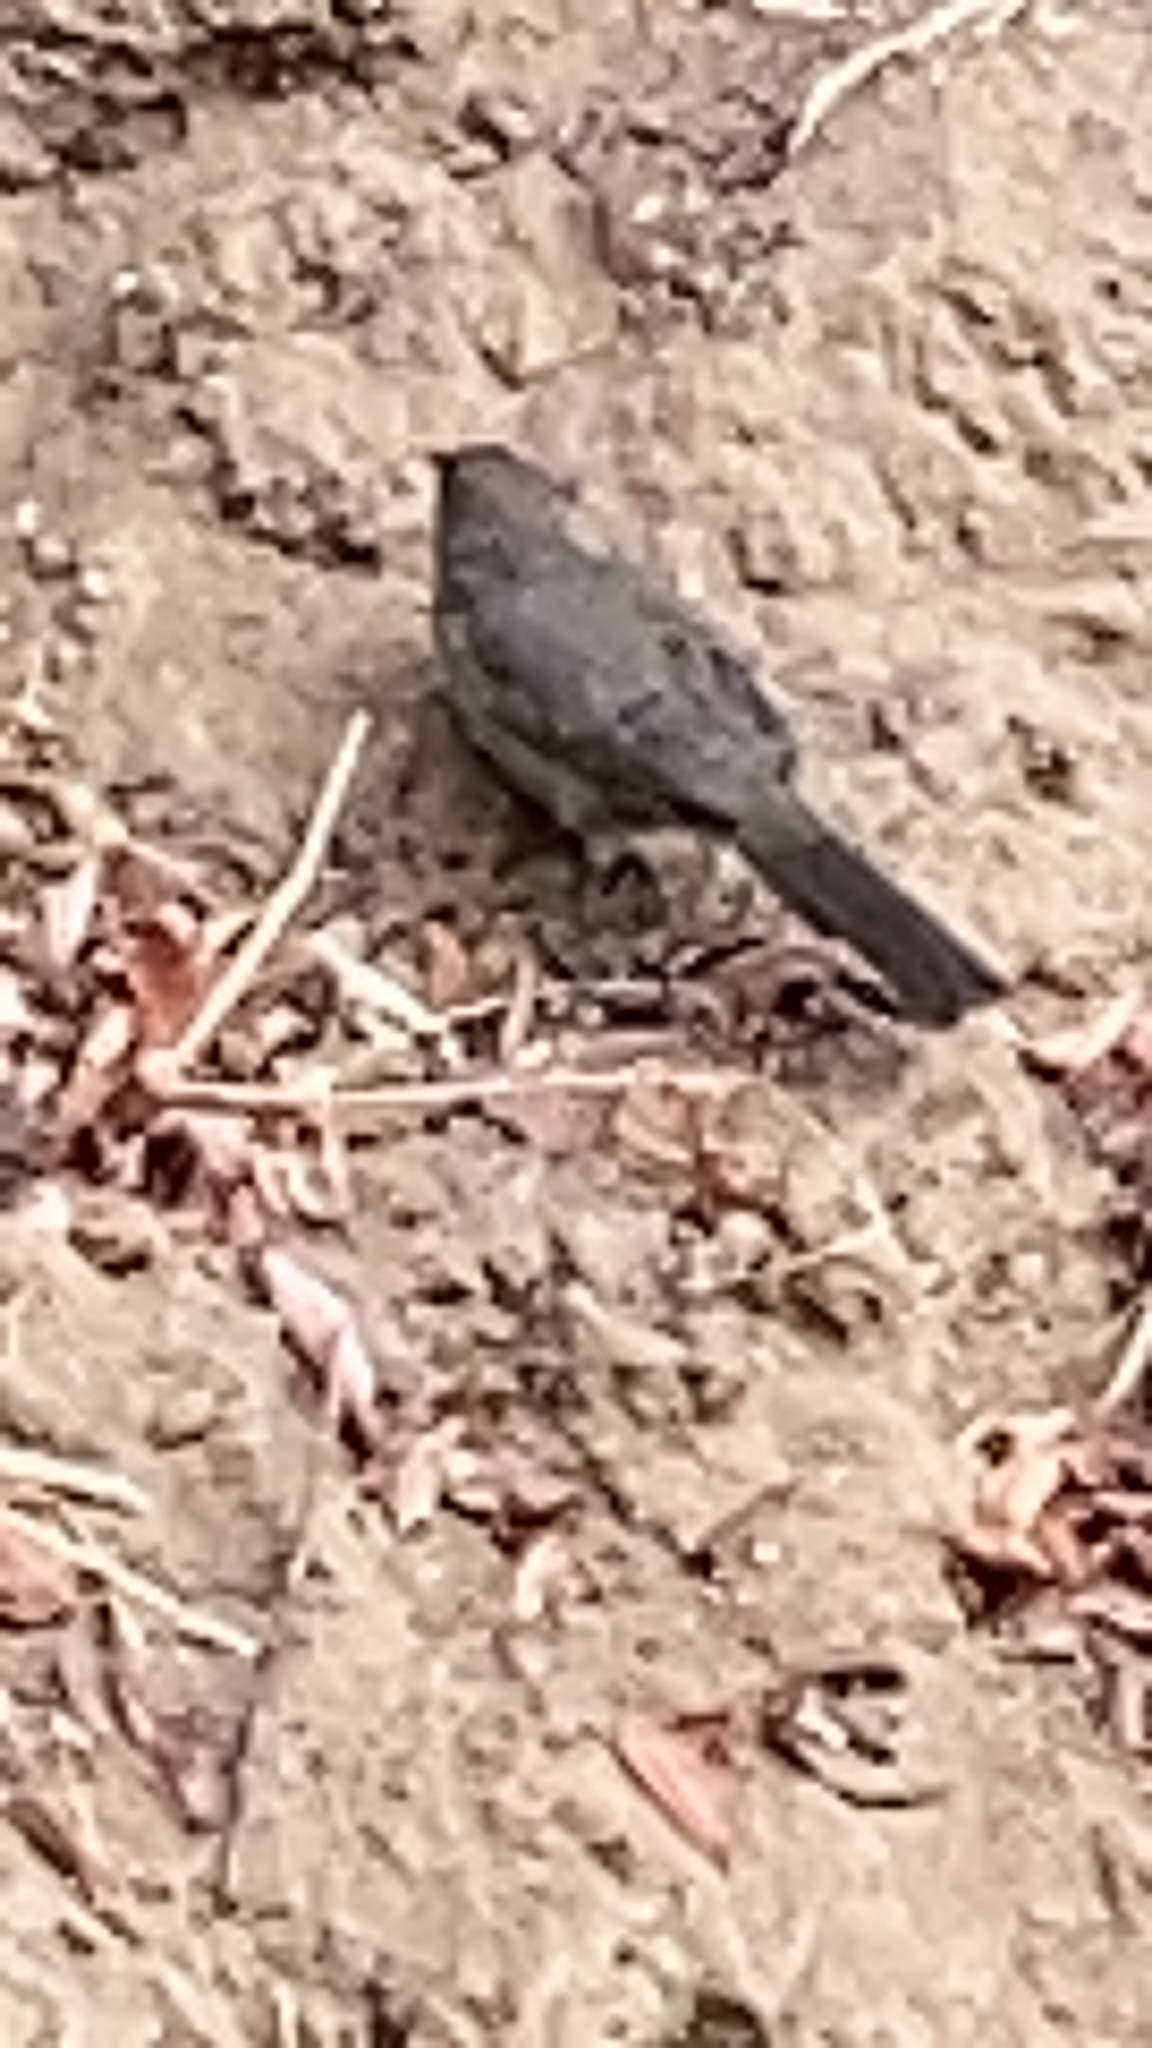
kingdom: Animalia
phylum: Chordata
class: Aves
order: Passeriformes
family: Passerellidae
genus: Melozone
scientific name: Melozone crissalis
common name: California towhee
